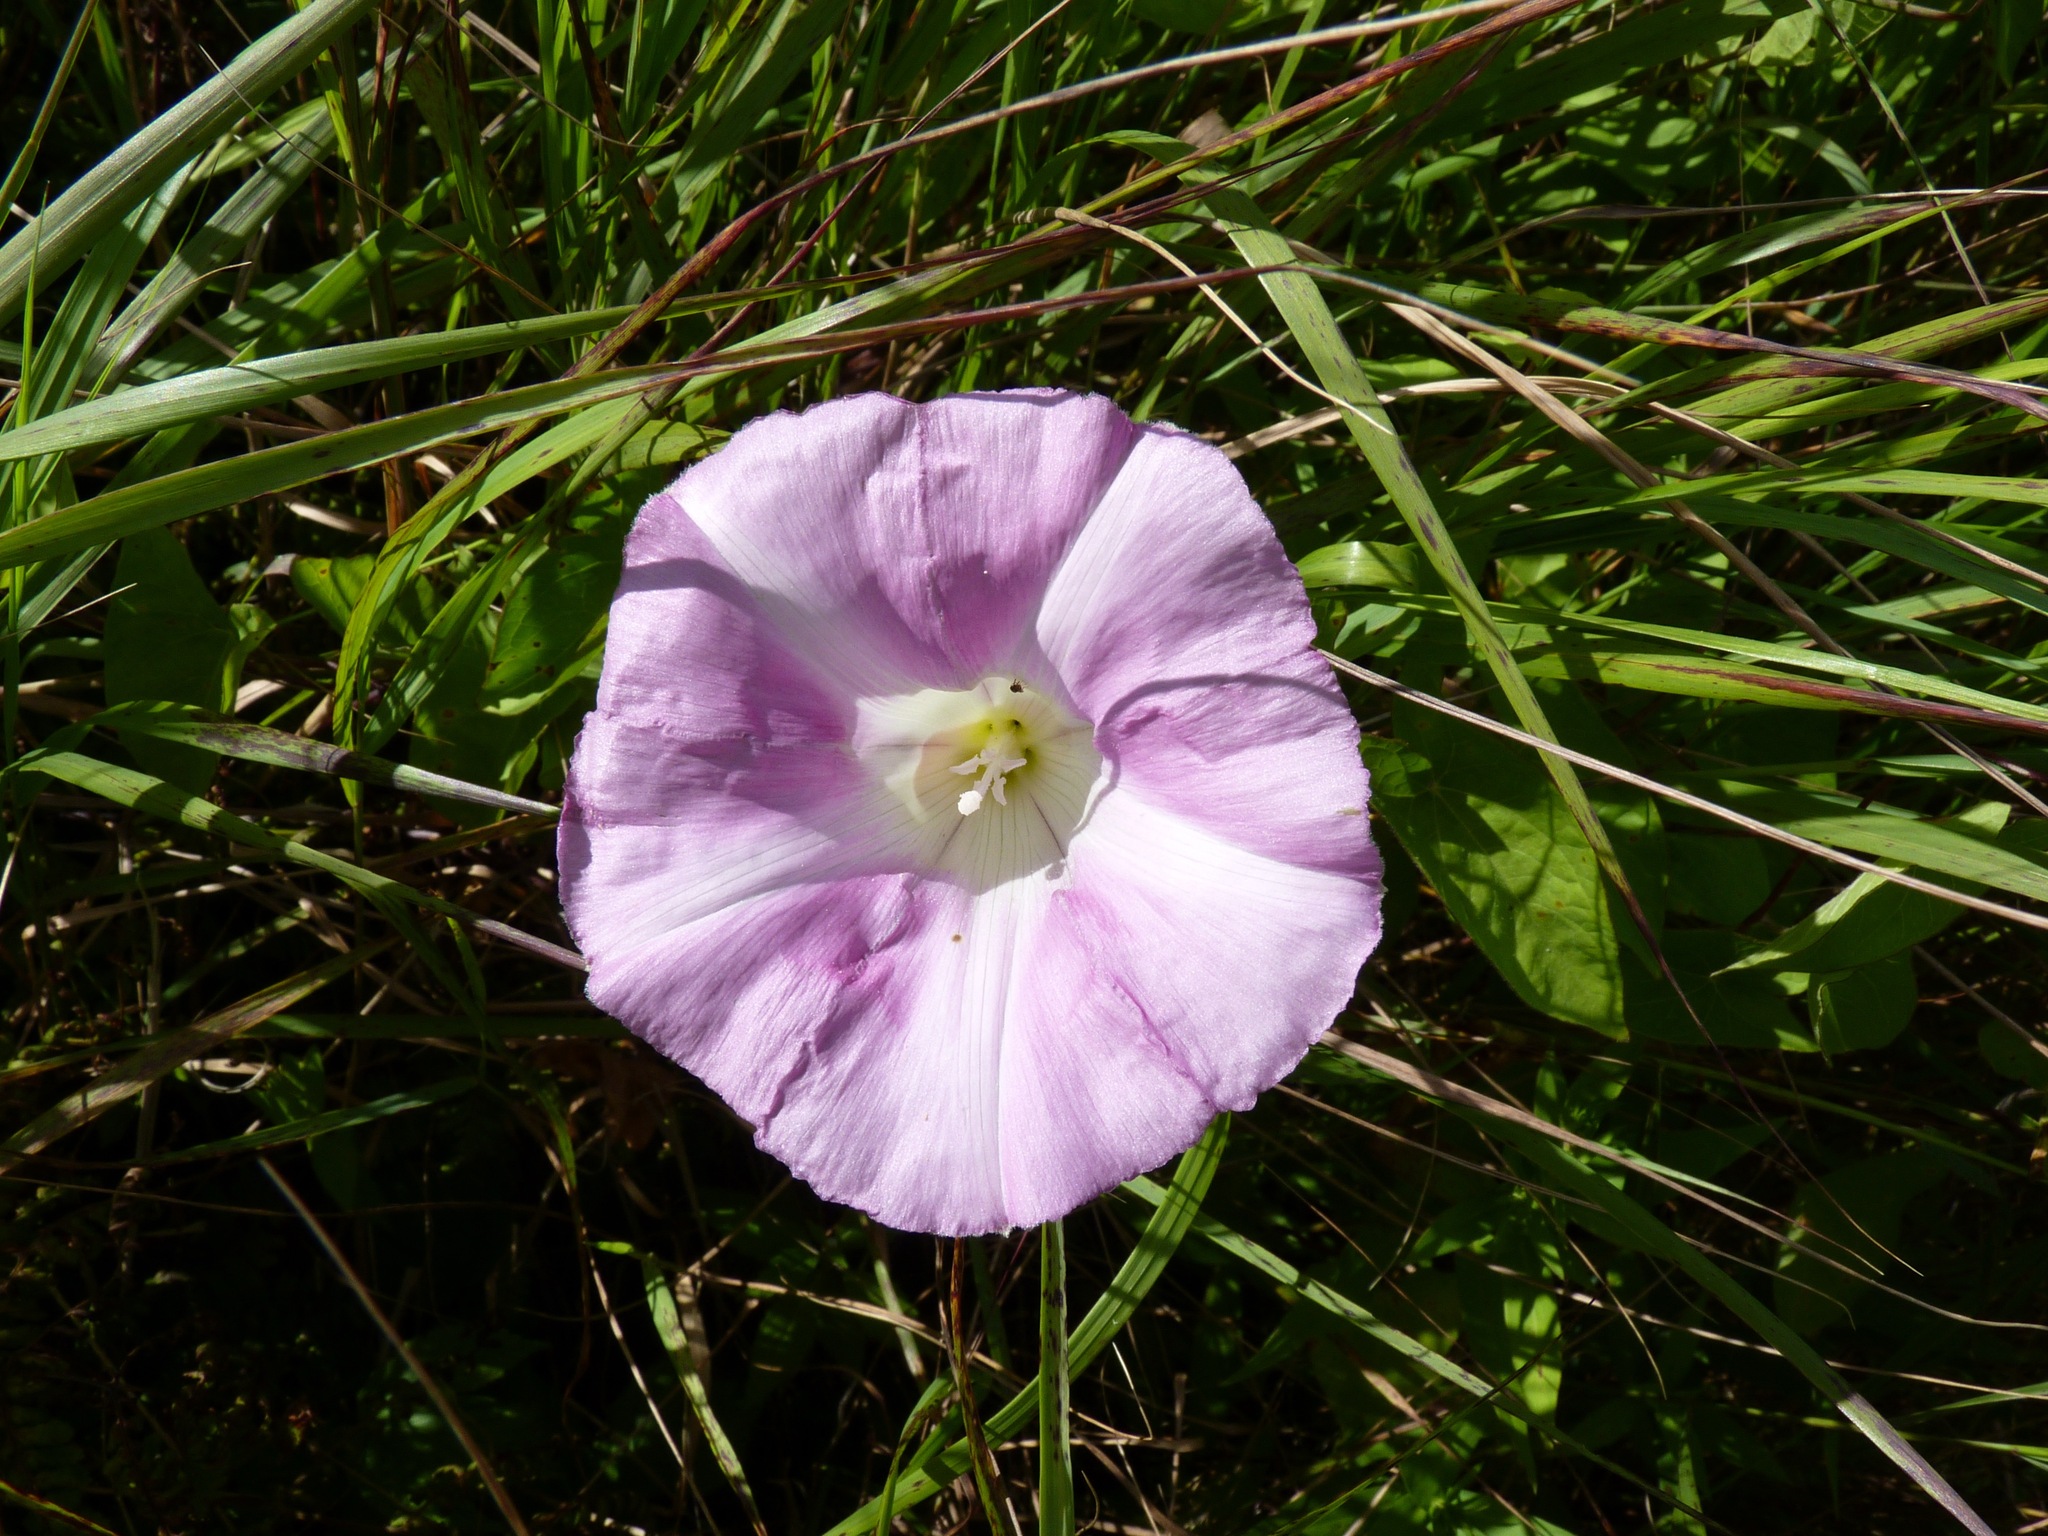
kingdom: Plantae
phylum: Tracheophyta
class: Magnoliopsida
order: Solanales
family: Convolvulaceae
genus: Calystegia
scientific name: Calystegia sepium
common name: Hedge bindweed
